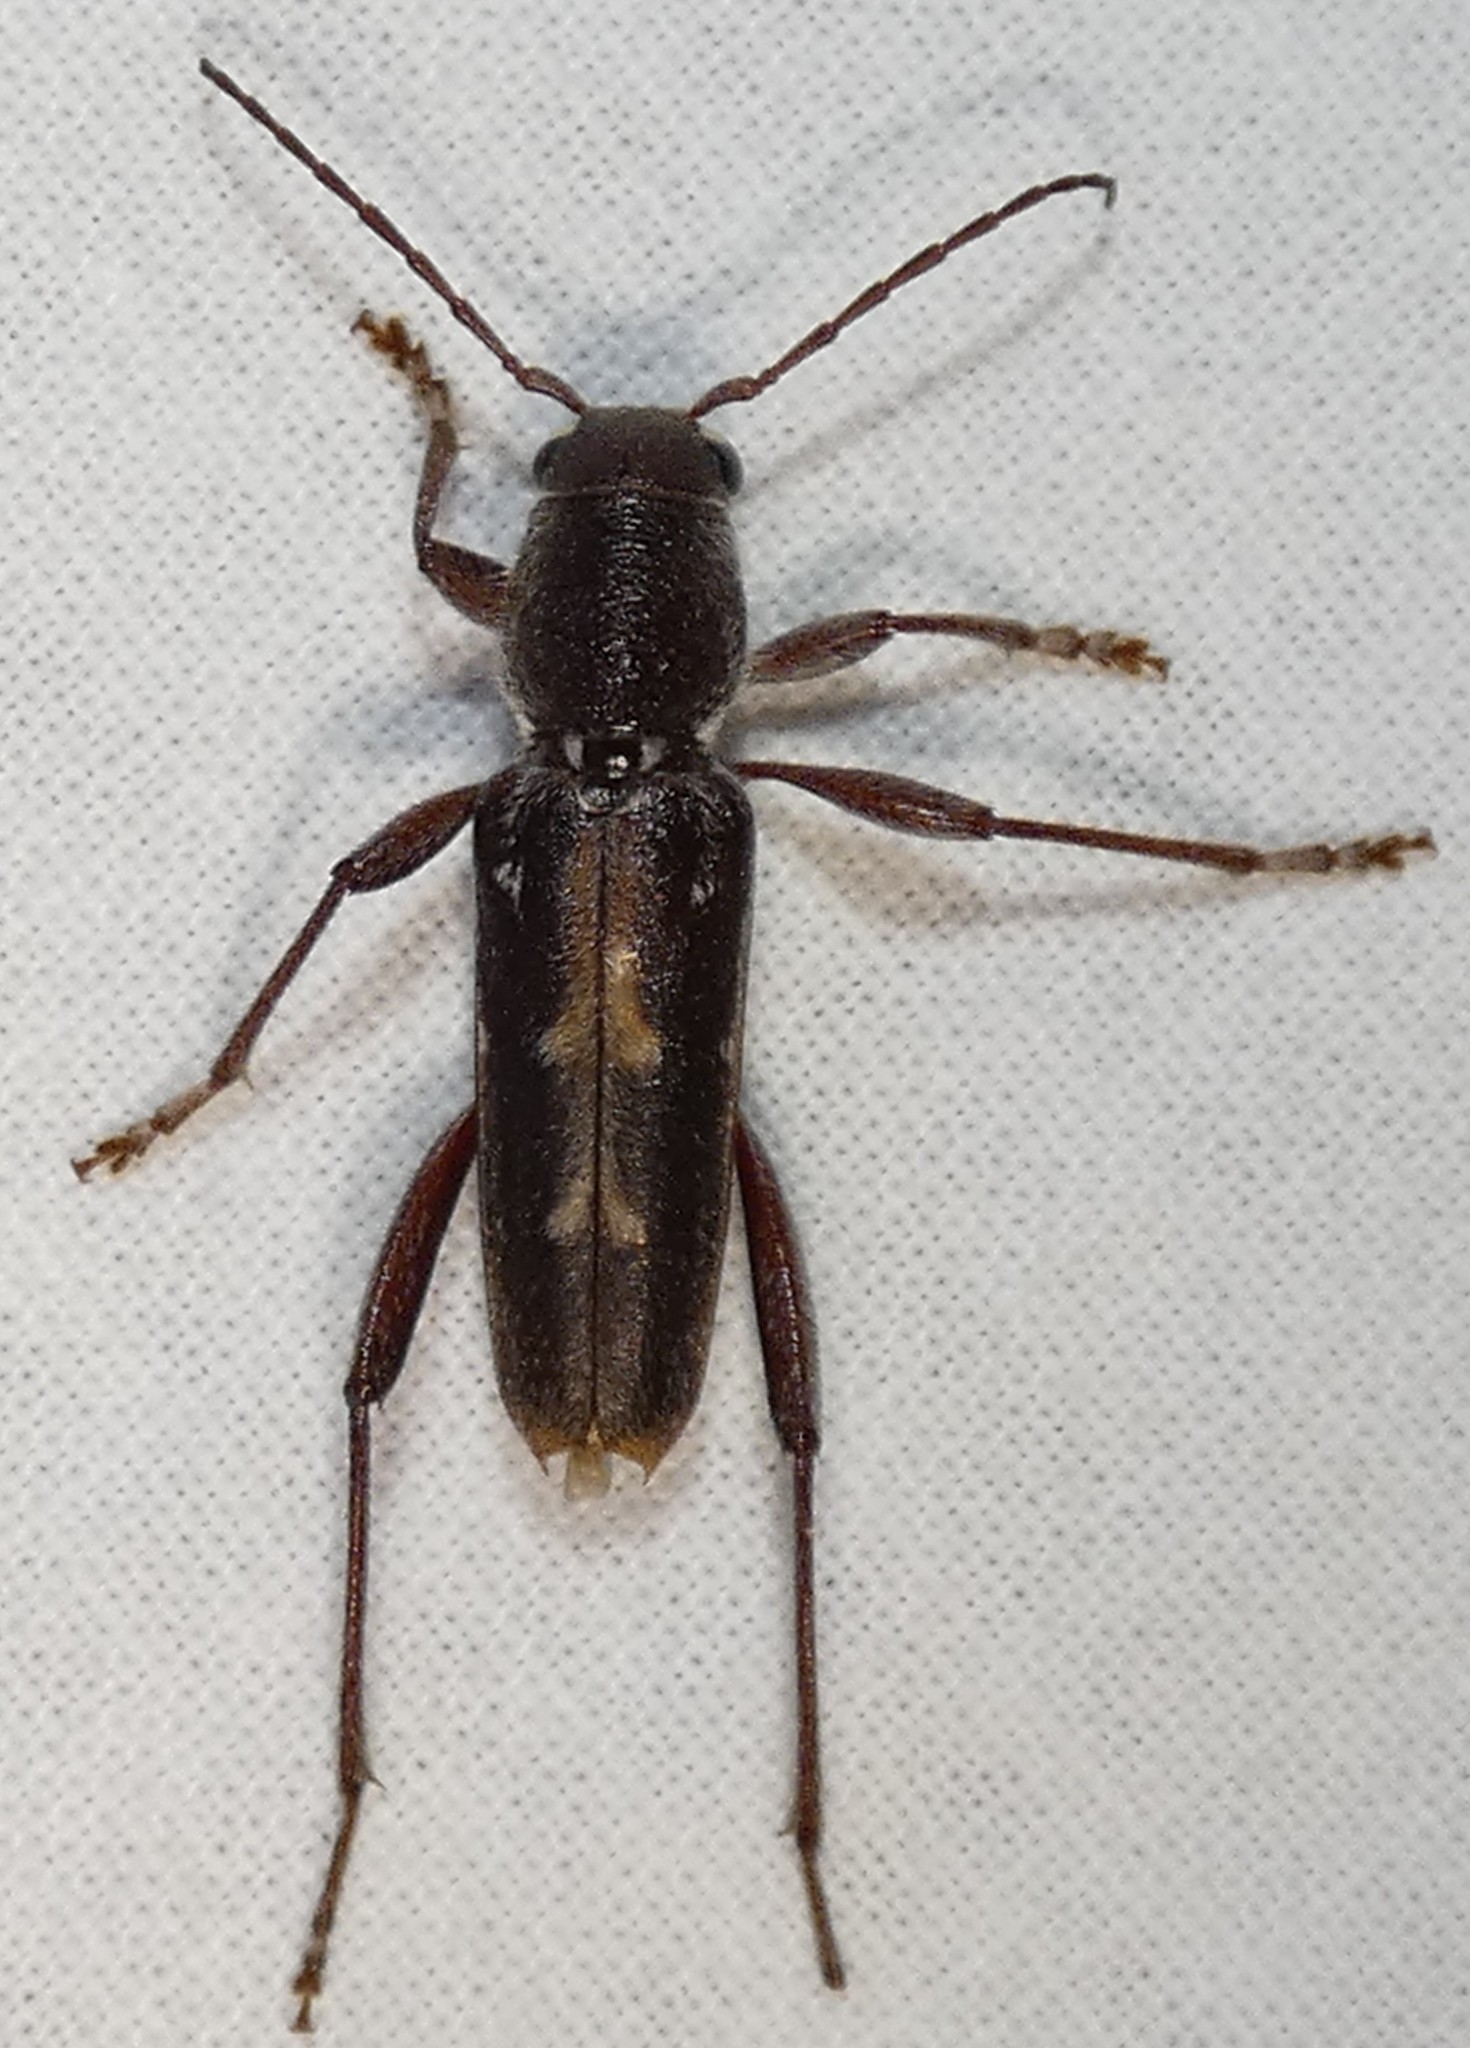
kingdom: Animalia
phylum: Arthropoda
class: Insecta
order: Coleoptera
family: Cerambycidae
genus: Xylotrechus
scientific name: Xylotrechus sagittatus
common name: Arrowhead borer
